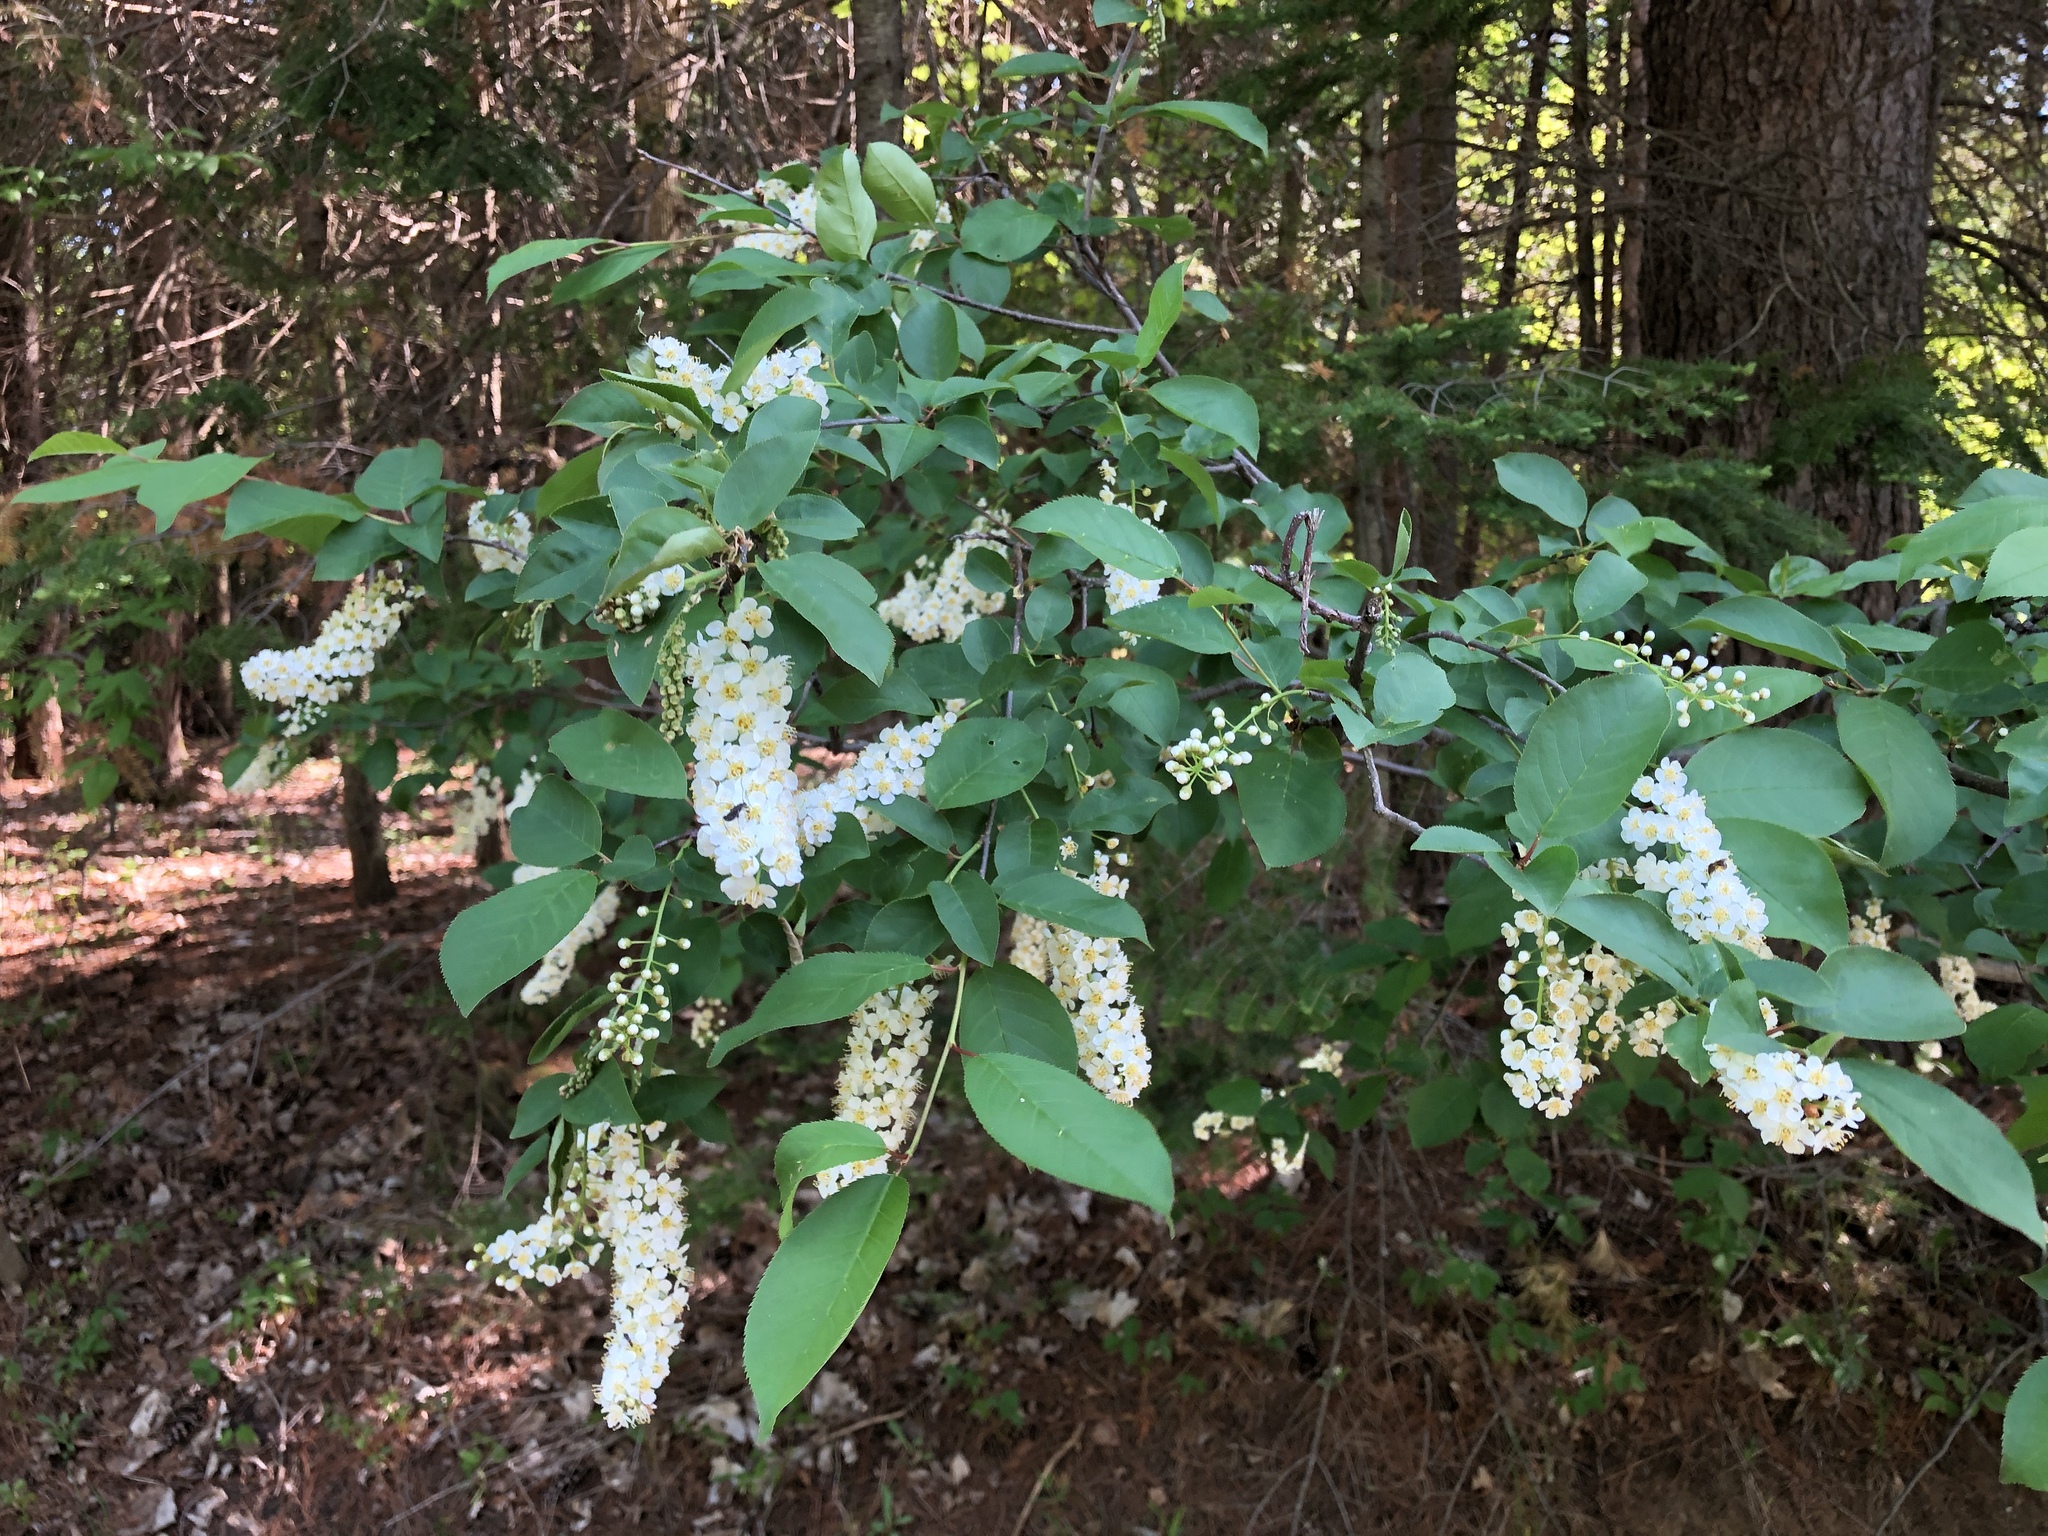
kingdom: Plantae
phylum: Tracheophyta
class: Magnoliopsida
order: Rosales
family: Rosaceae
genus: Prunus
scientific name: Prunus virginiana
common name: Chokecherry
